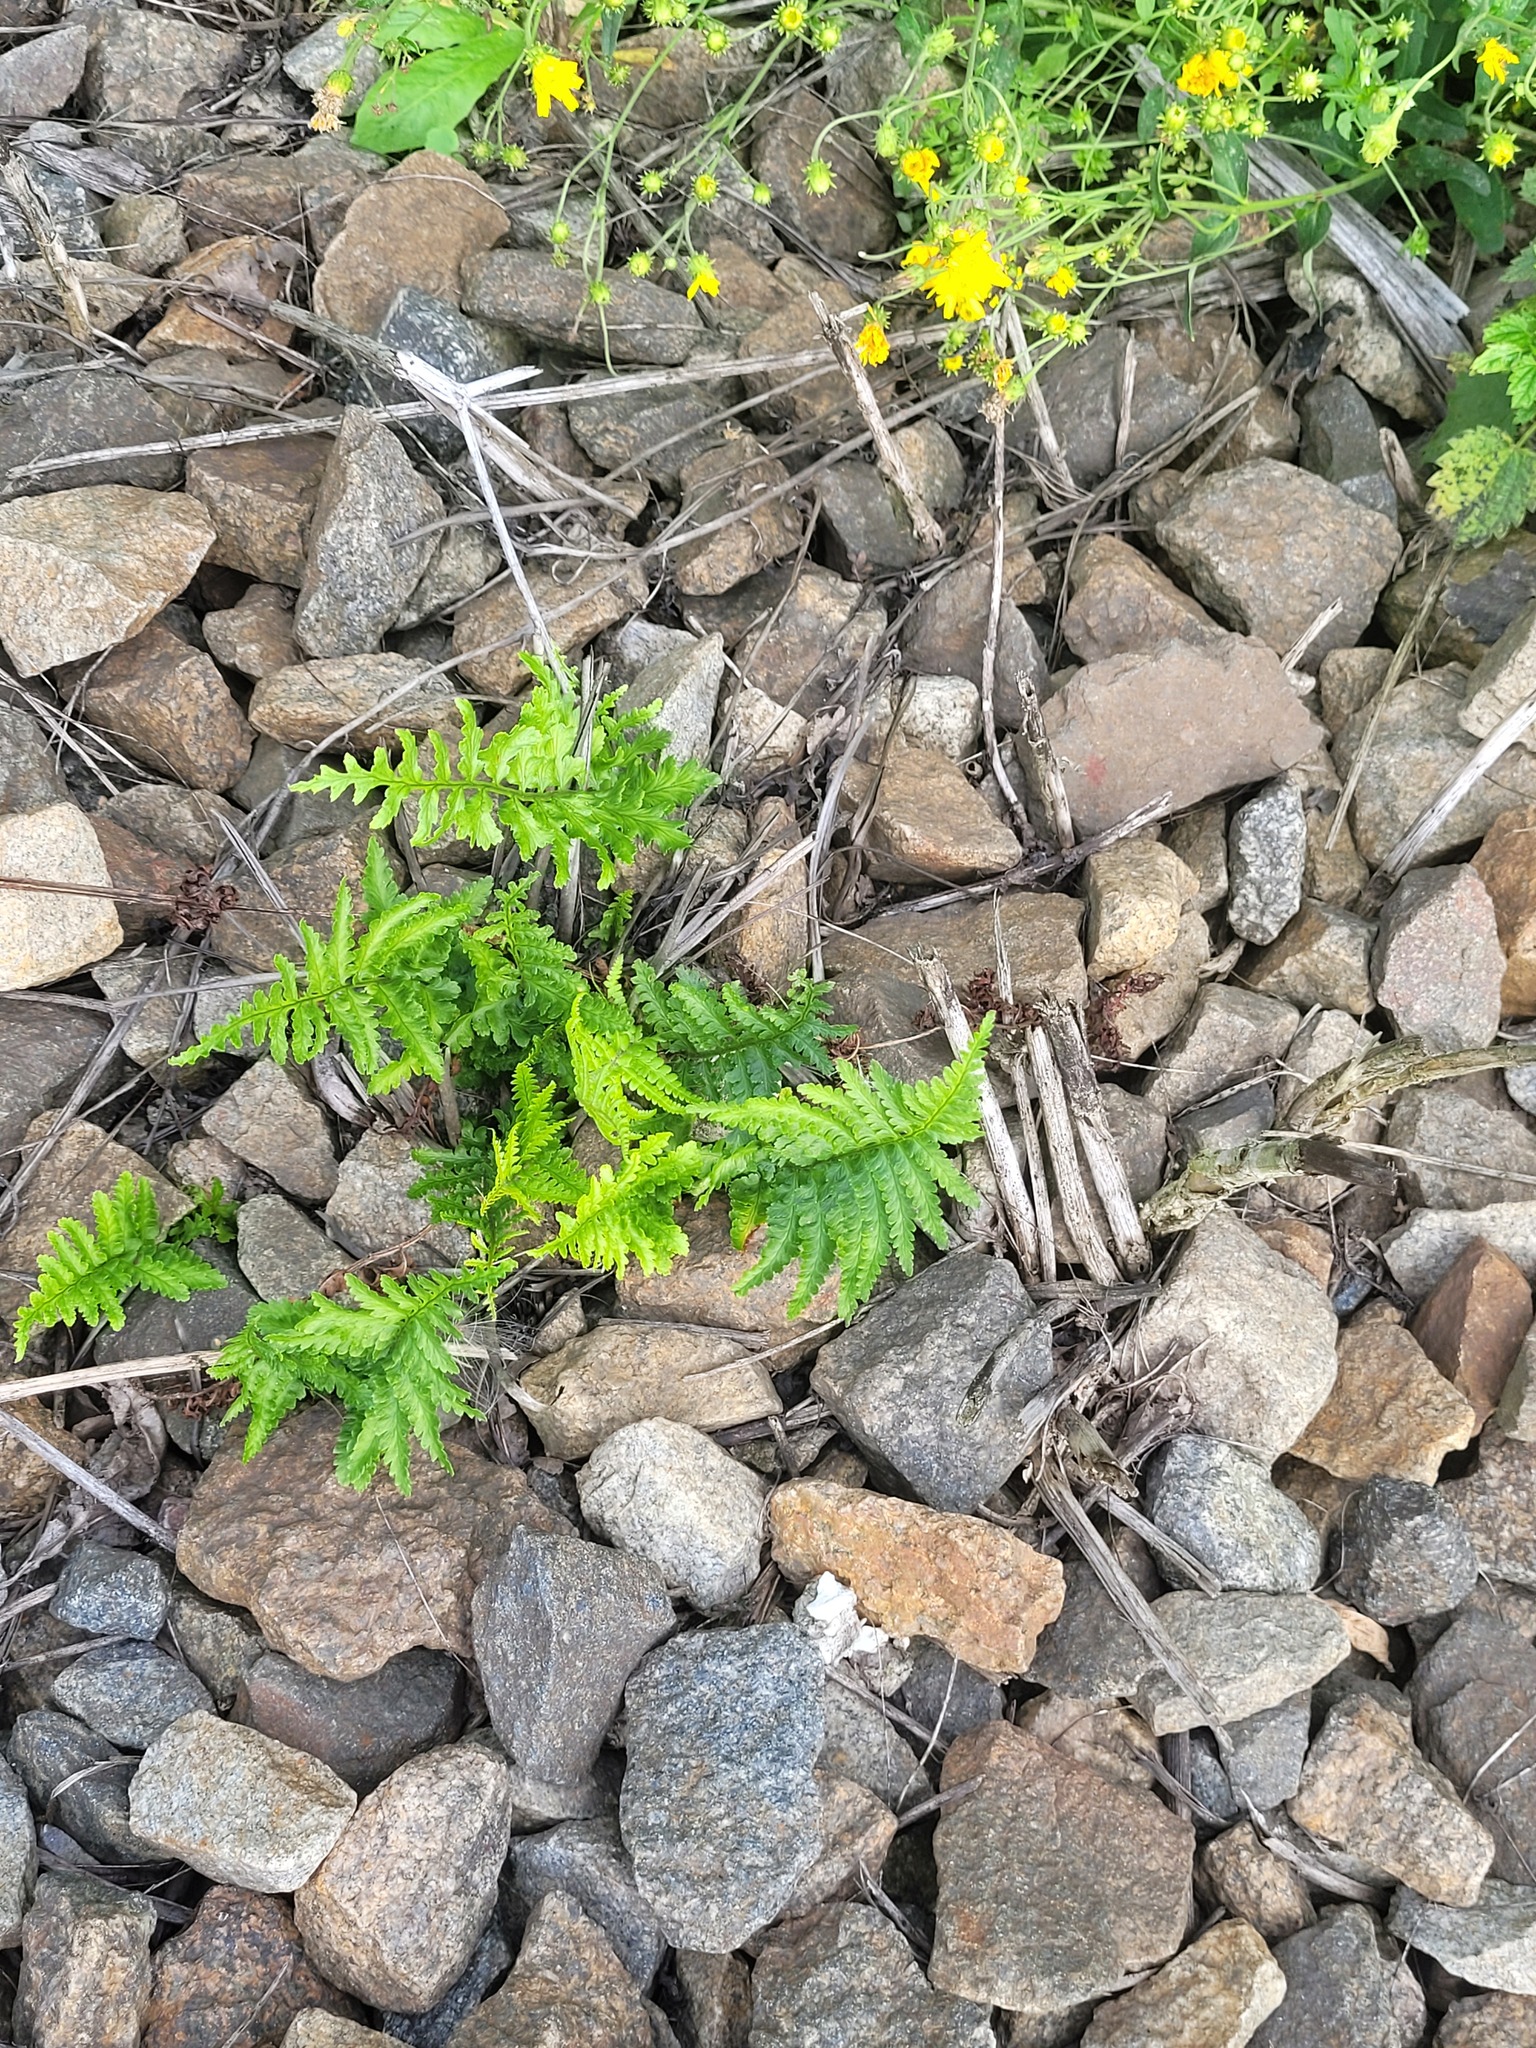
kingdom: Plantae
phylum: Tracheophyta
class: Polypodiopsida
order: Polypodiales
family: Dryopteridaceae
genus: Dryopteris
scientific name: Dryopteris filix-mas
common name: Male fern
